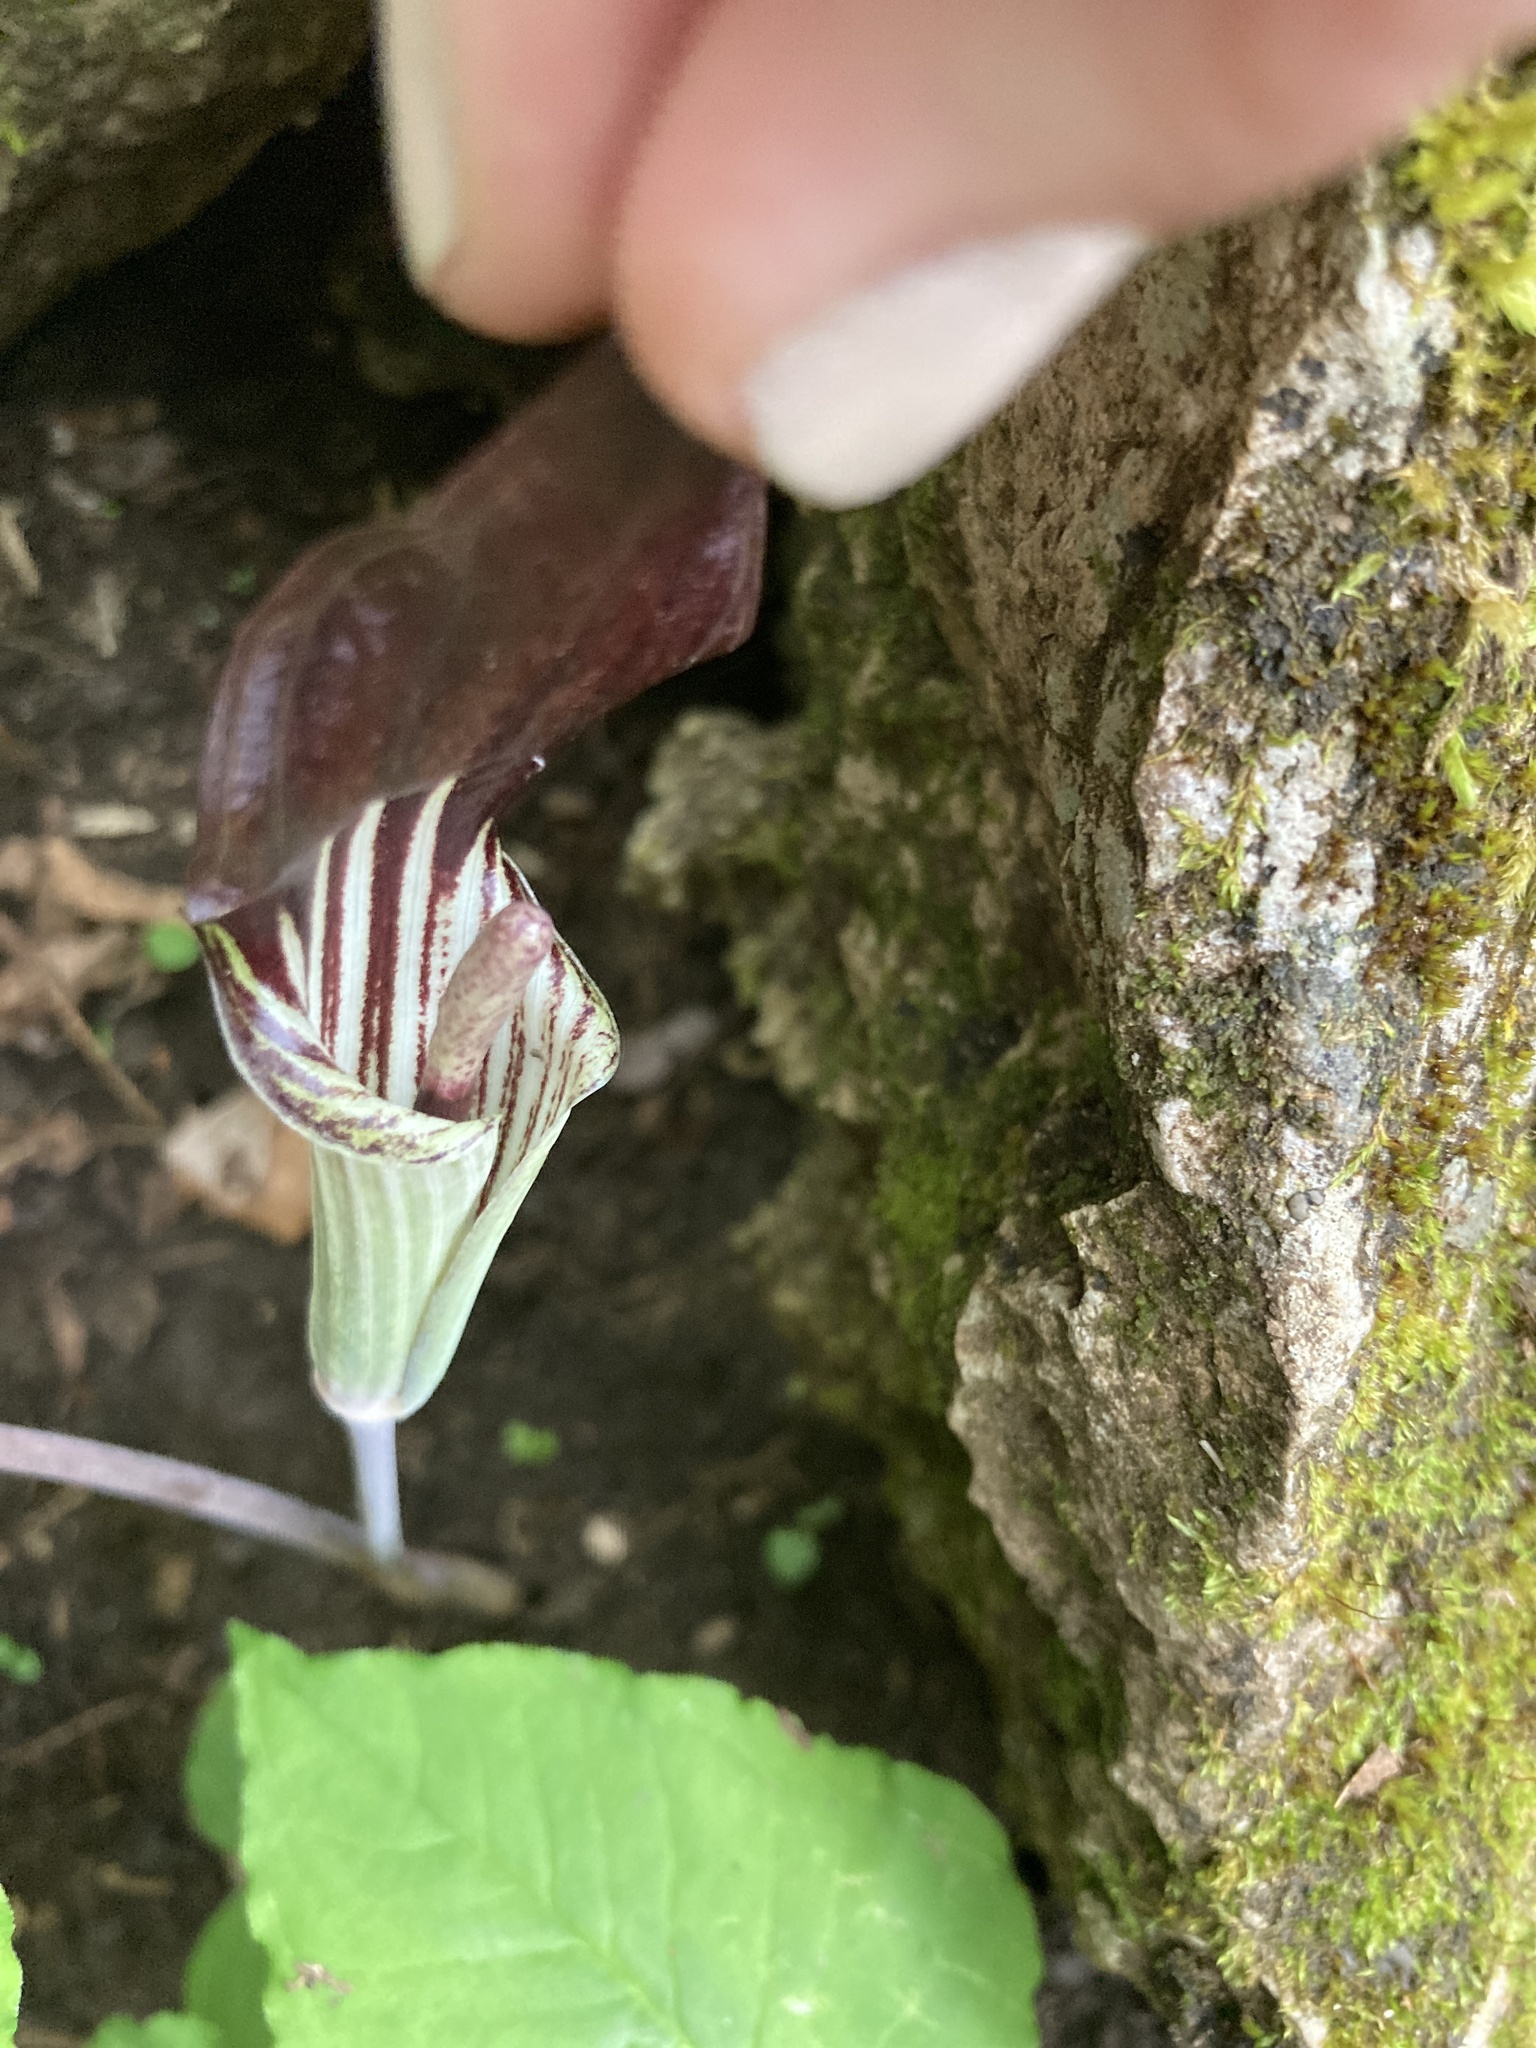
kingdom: Plantae
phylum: Tracheophyta
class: Liliopsida
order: Alismatales
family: Araceae
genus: Arisaema
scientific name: Arisaema triphyllum
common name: Jack-in-the-pulpit
